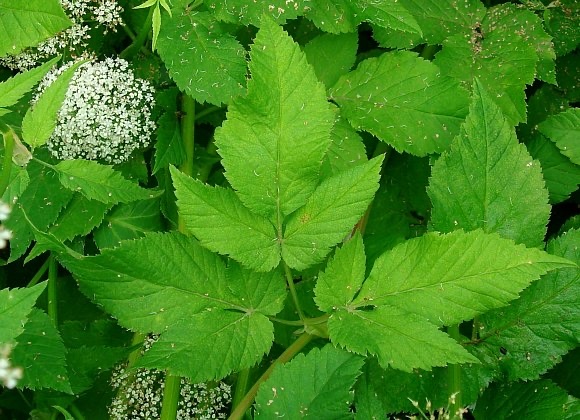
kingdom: Plantae
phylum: Tracheophyta
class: Magnoliopsida
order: Apiales
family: Apiaceae
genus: Aegopodium
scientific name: Aegopodium podagraria
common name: Ground-elder
